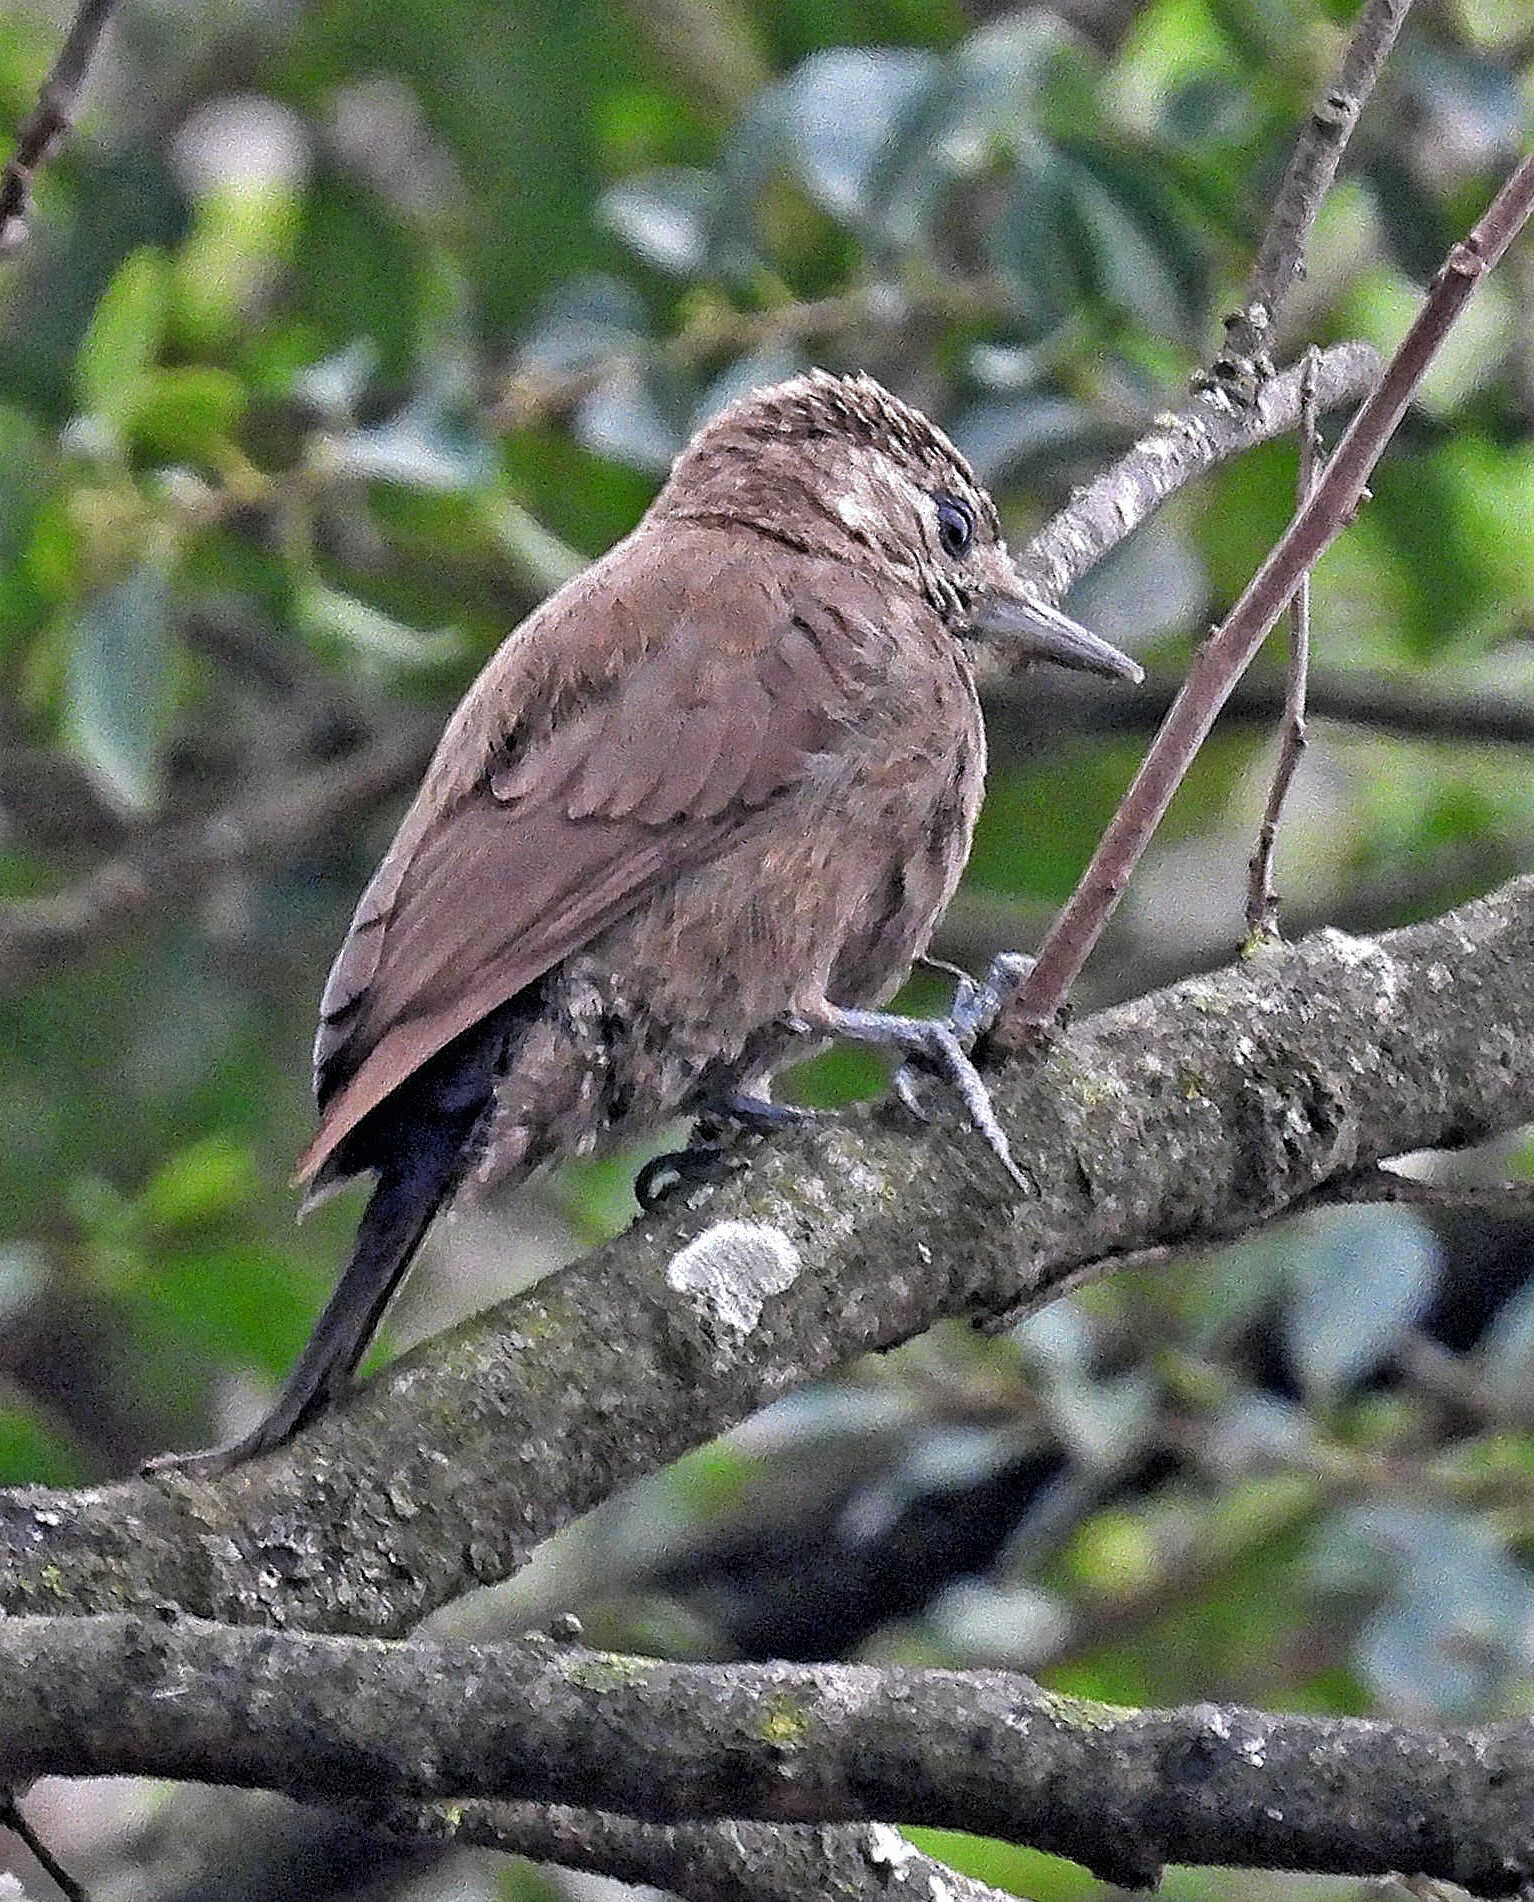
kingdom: Animalia
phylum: Chordata
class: Aves
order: Piciformes
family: Picidae
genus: Leuconotopicus
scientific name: Leuconotopicus fumigatus
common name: Smoky-brown woodpecker
